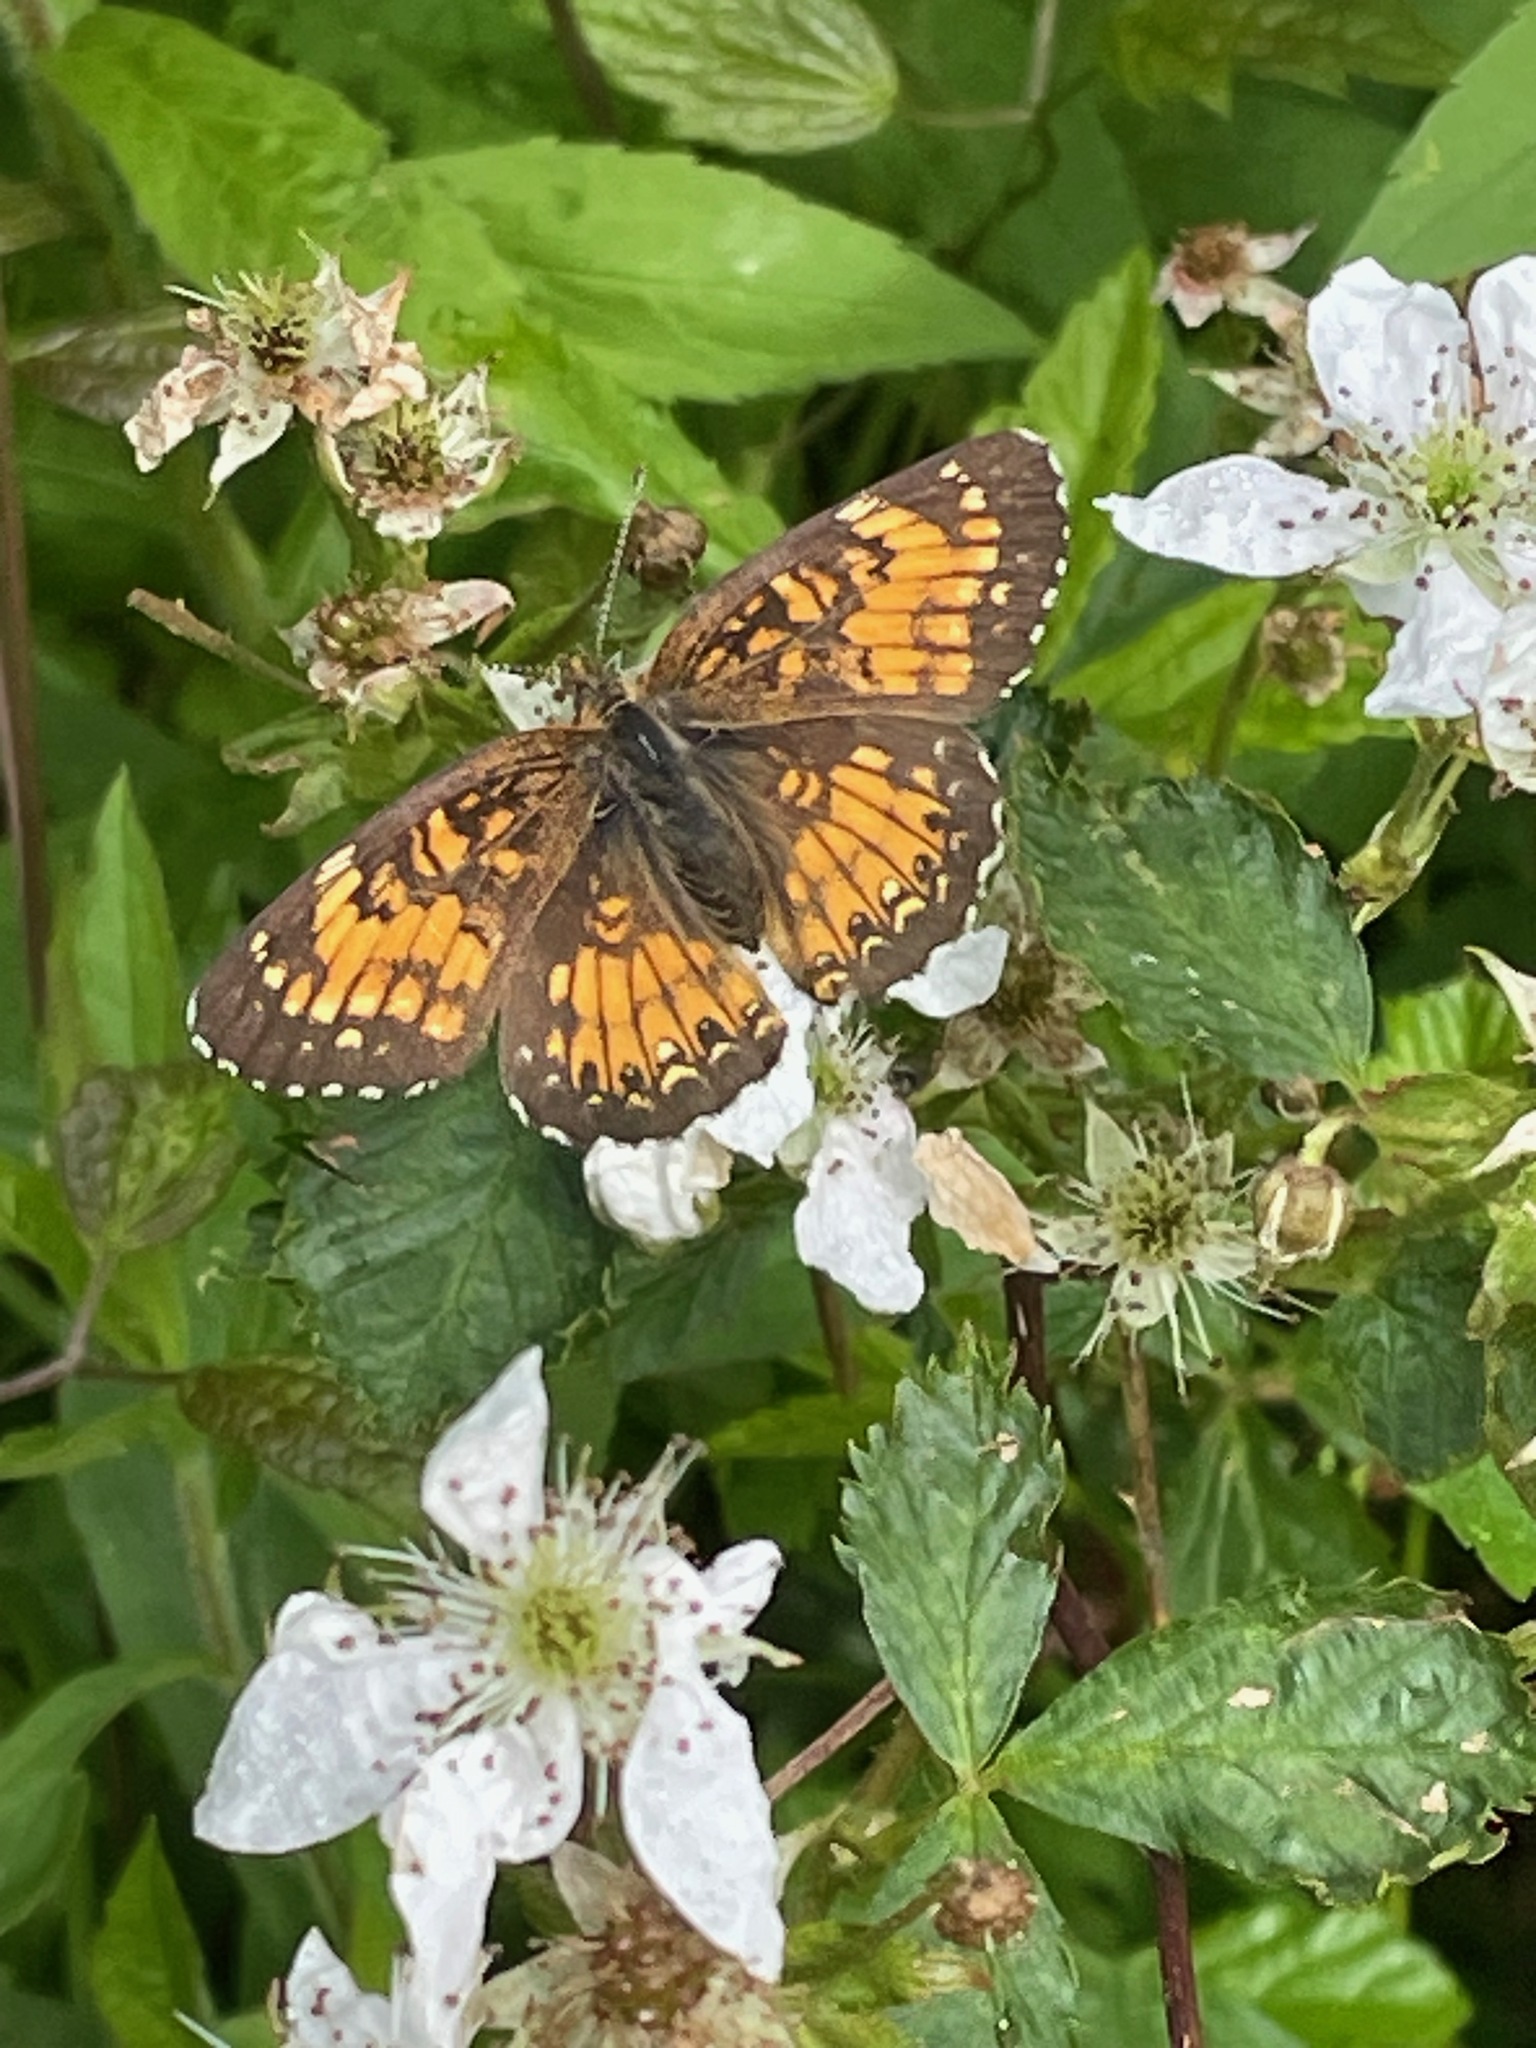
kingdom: Animalia
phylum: Arthropoda
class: Insecta
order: Lepidoptera
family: Nymphalidae
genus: Chlosyne
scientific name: Chlosyne harrisii
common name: Harris's checkerspot
